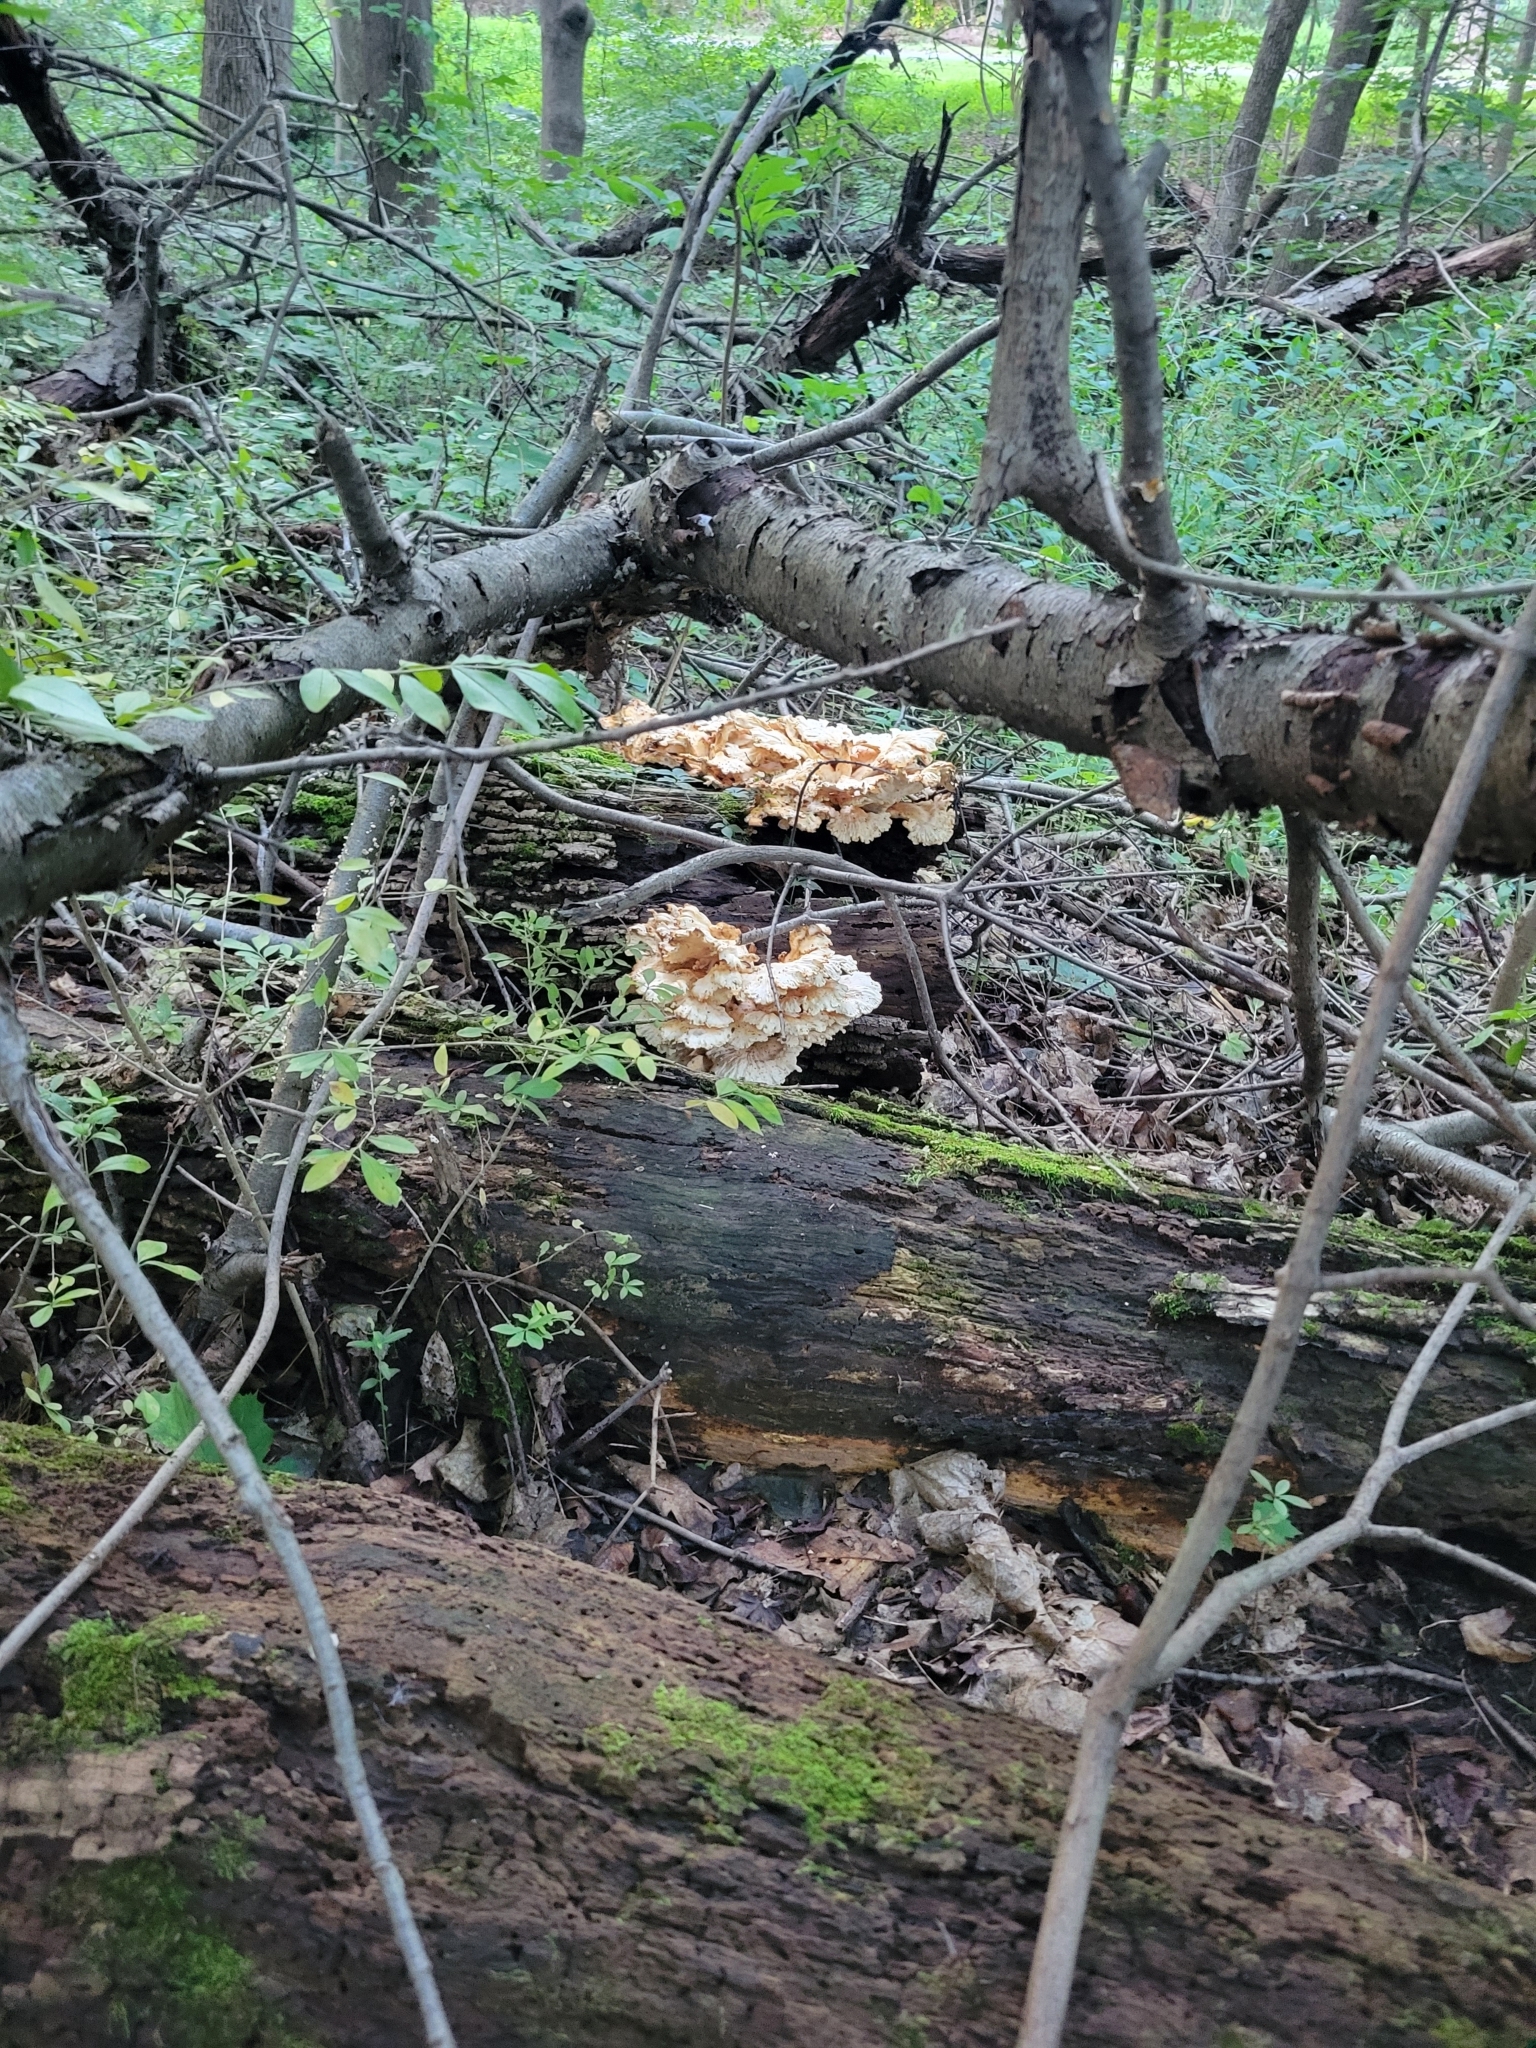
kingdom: Fungi
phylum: Basidiomycota
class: Agaricomycetes
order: Polyporales
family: Laetiporaceae
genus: Laetiporus
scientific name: Laetiporus sulphureus
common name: Chicken of the woods
